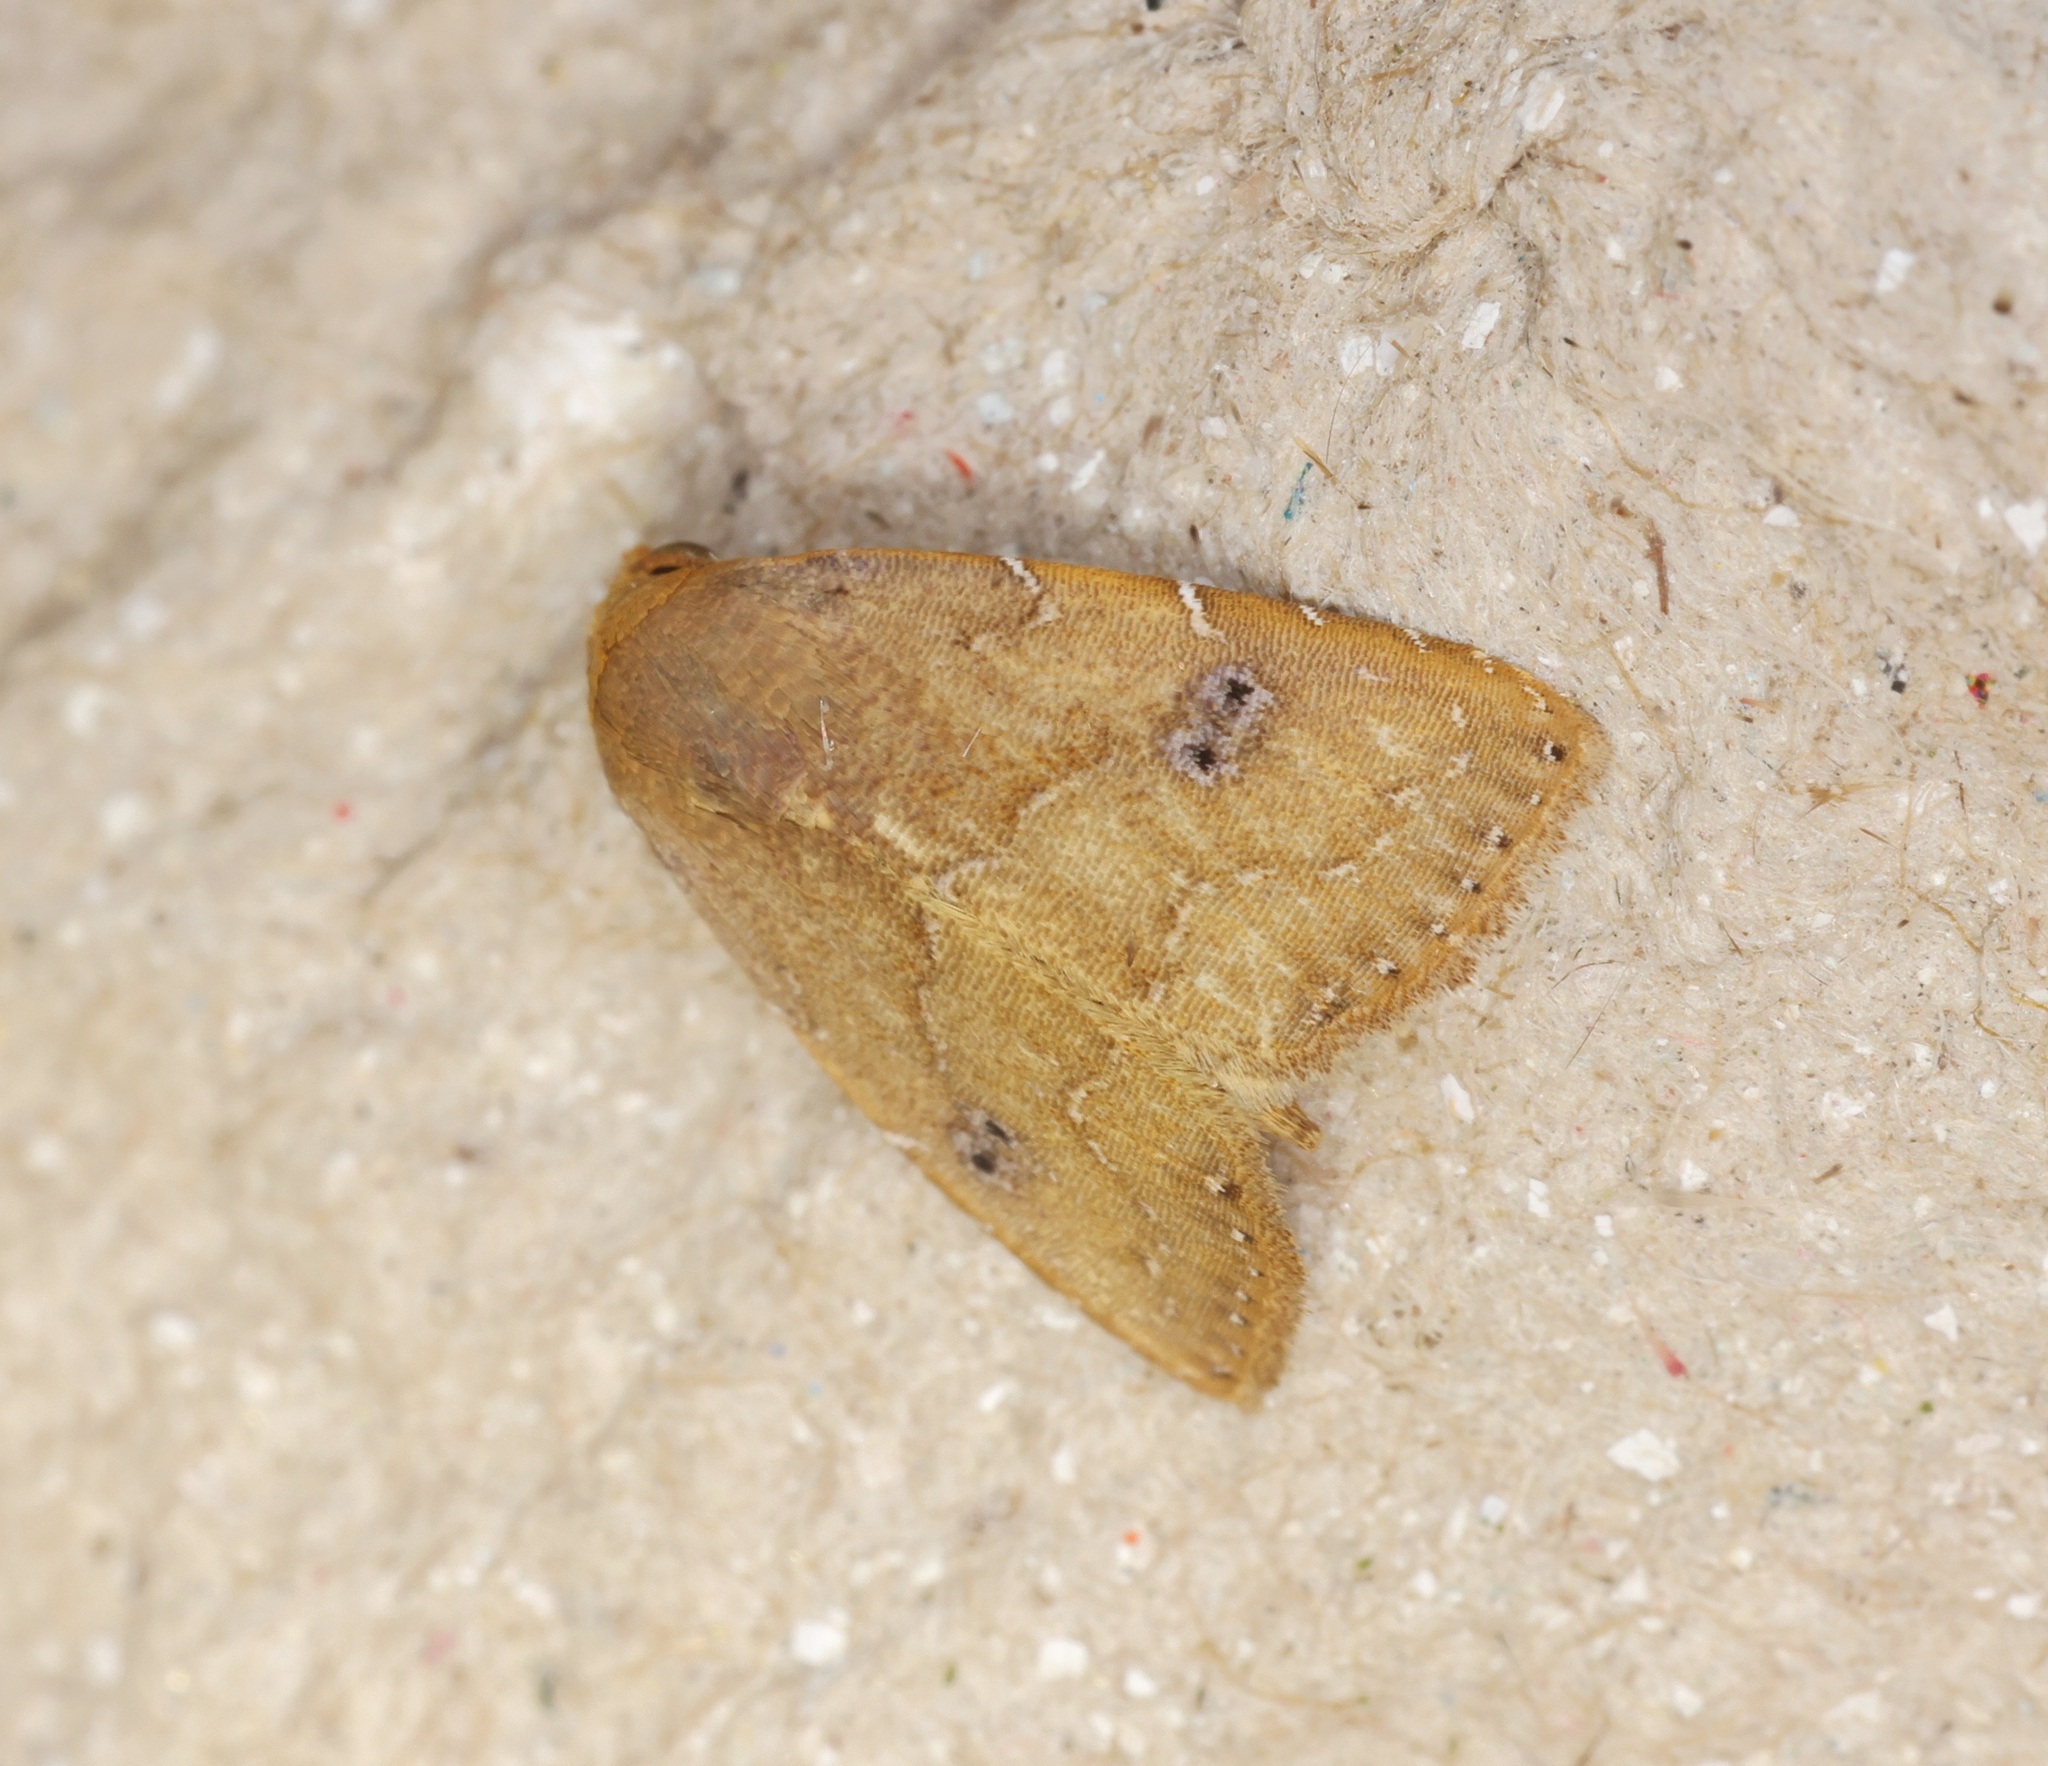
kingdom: Animalia
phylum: Arthropoda
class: Insecta
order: Lepidoptera
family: Erebidae
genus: Rivula
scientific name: Rivula bioculalis
